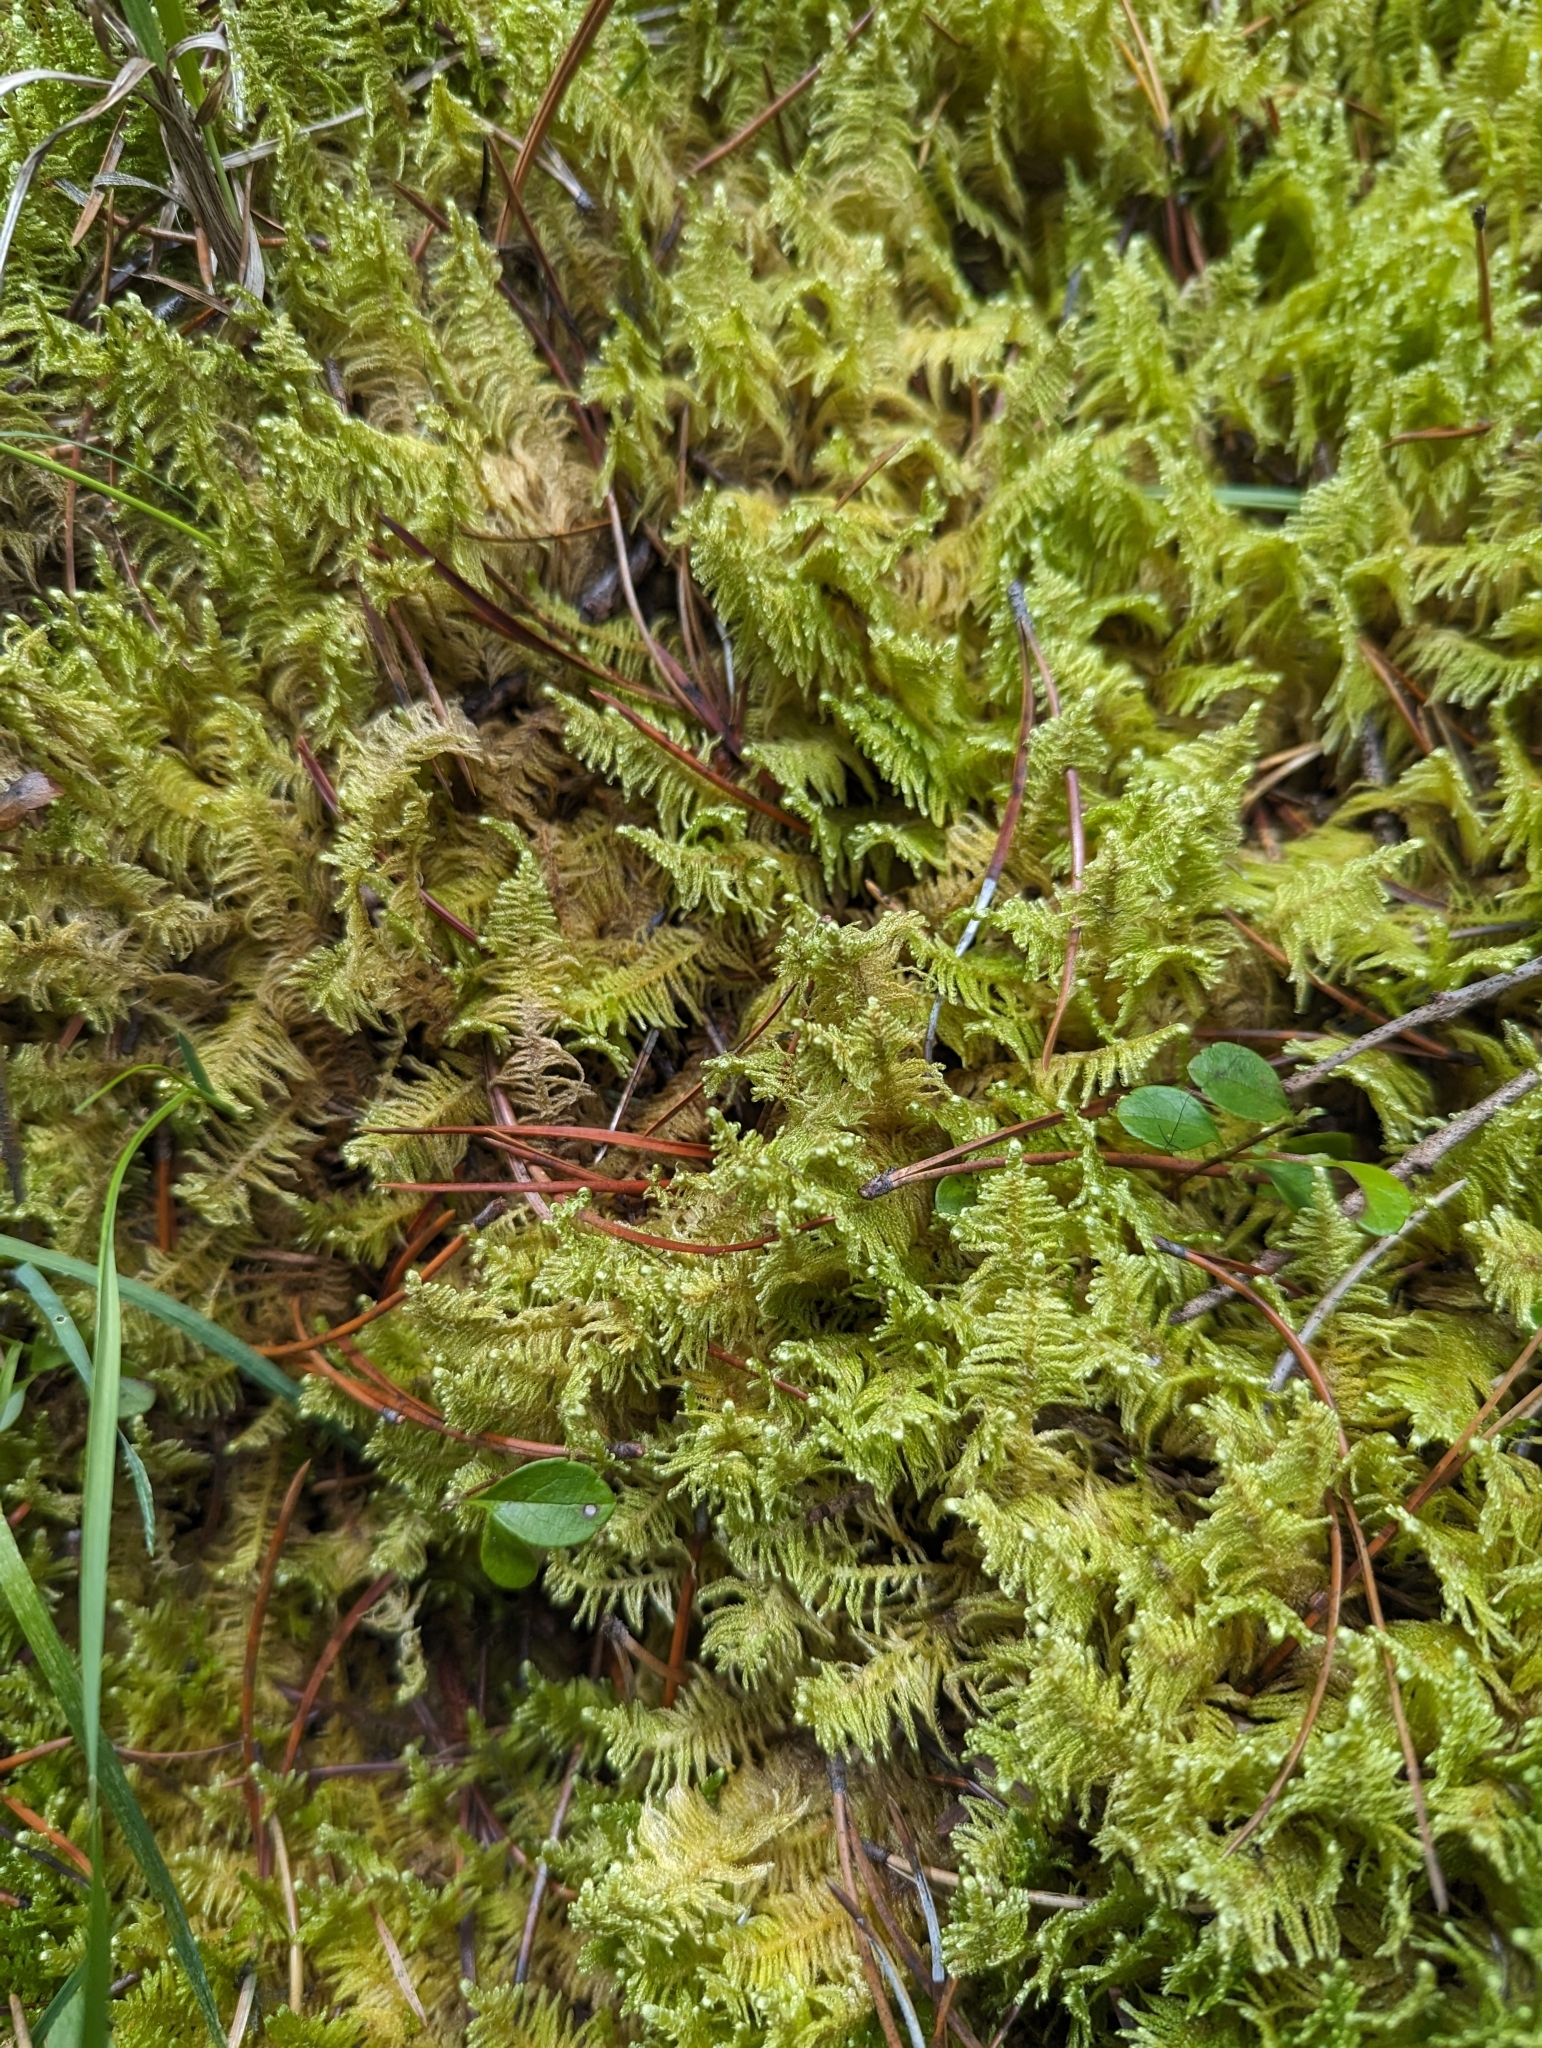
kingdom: Plantae
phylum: Bryophyta
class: Bryopsida
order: Hypnales
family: Pylaisiaceae
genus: Ptilium
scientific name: Ptilium crista-castrensis
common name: Knight's plume moss
